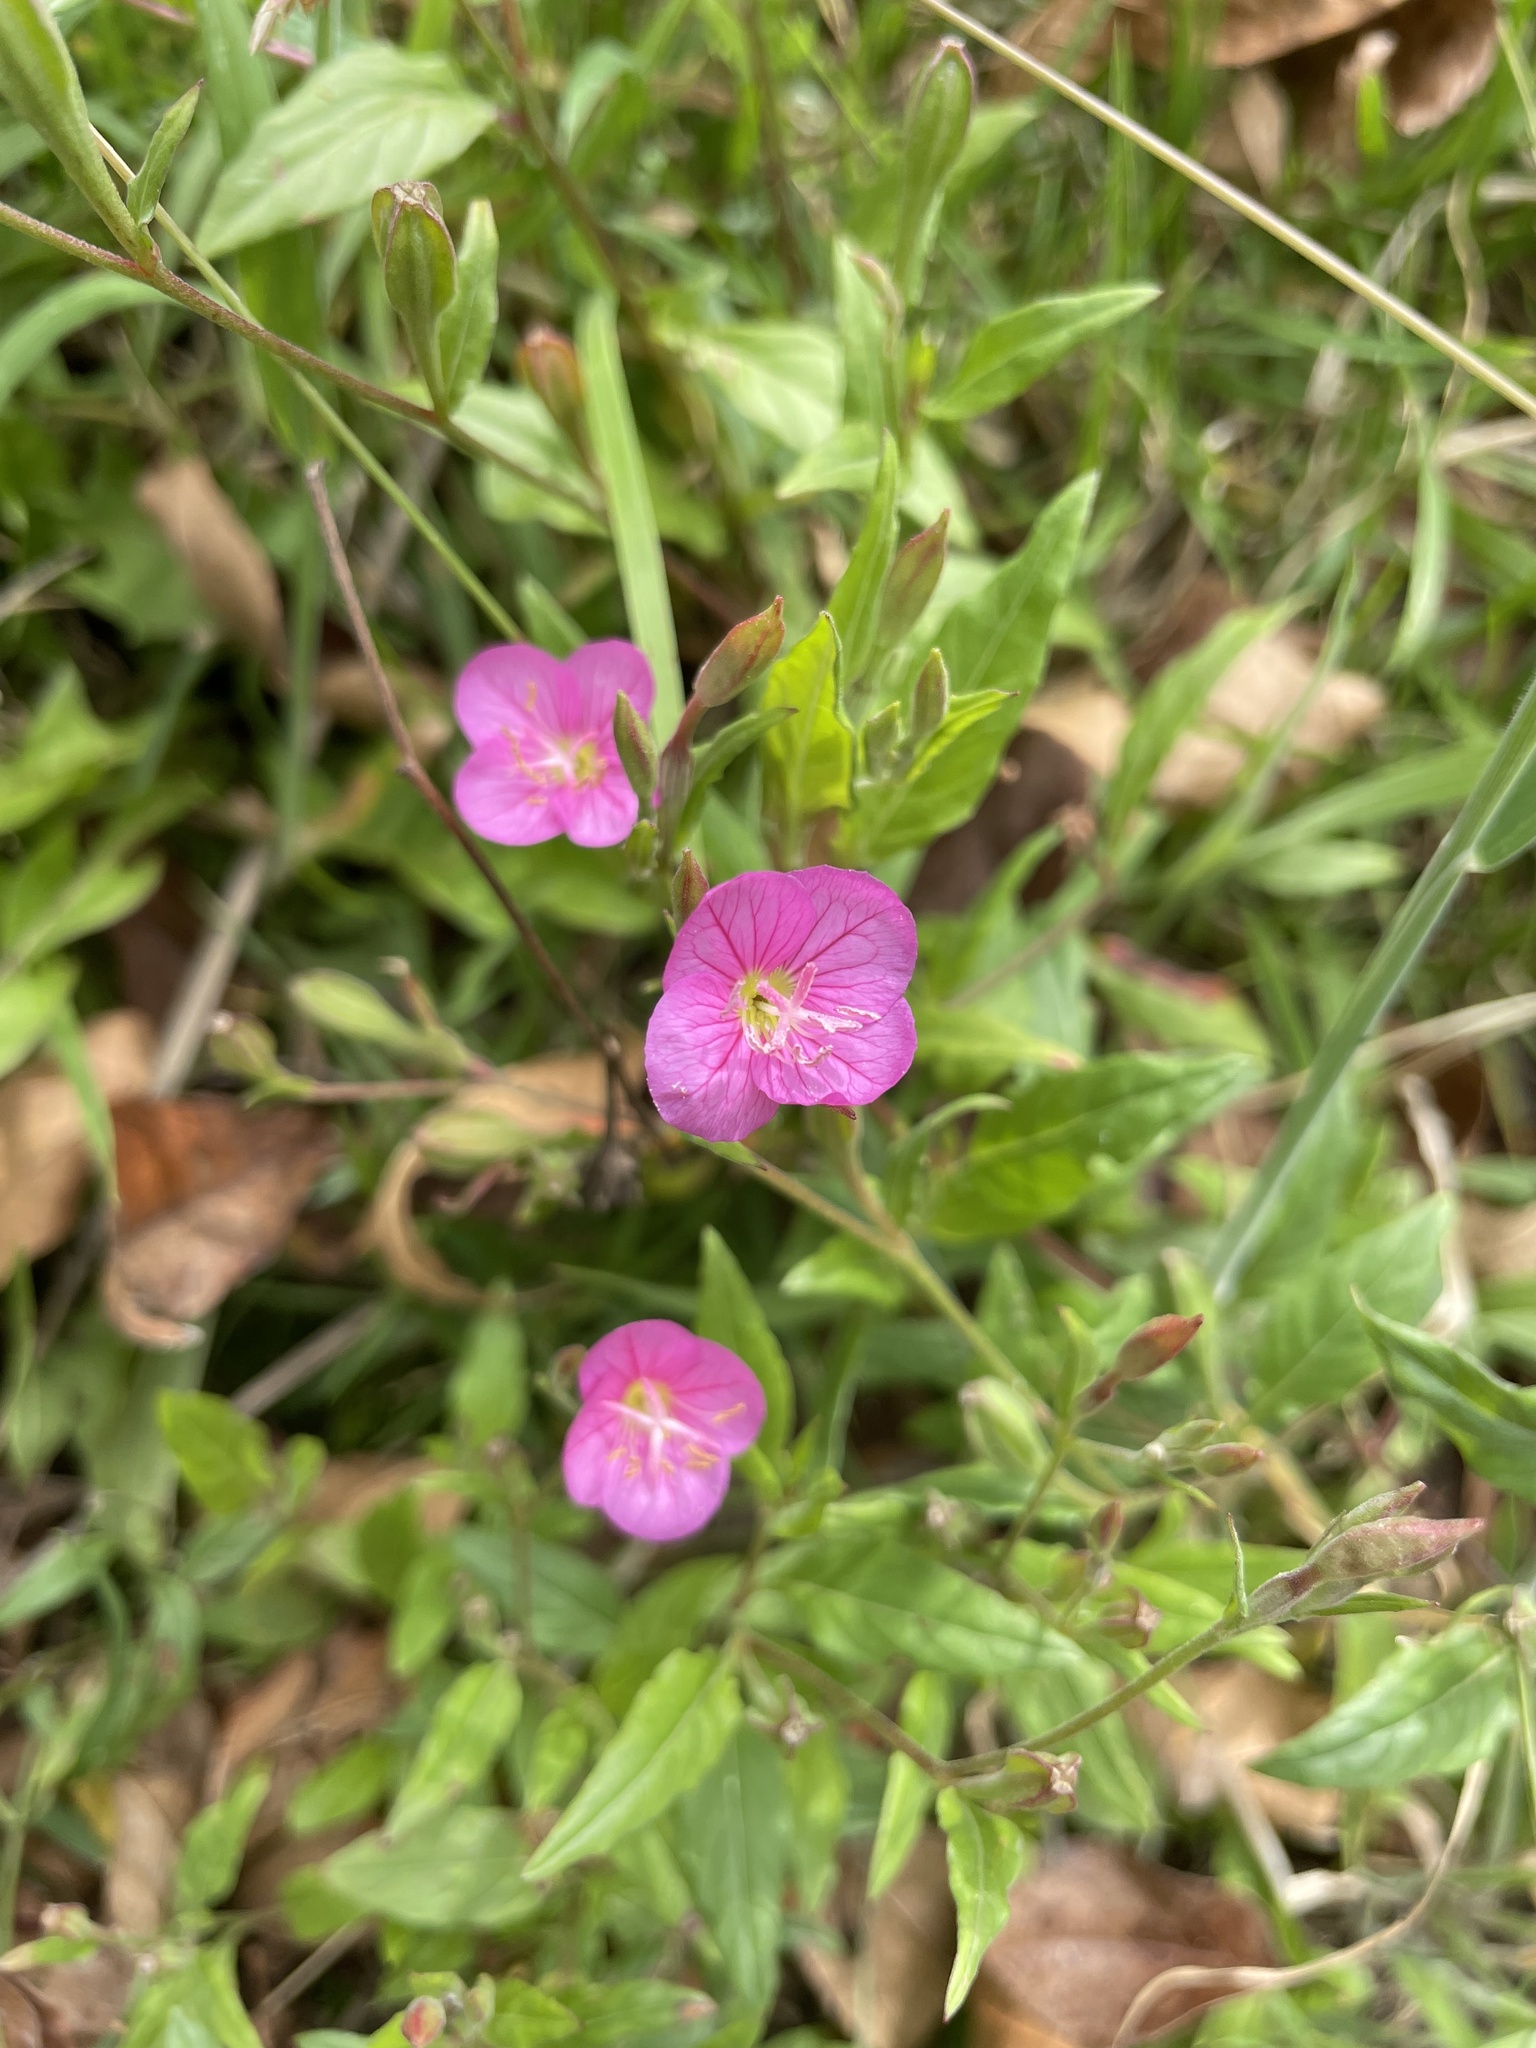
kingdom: Plantae
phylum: Tracheophyta
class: Magnoliopsida
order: Myrtales
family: Onagraceae
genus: Oenothera
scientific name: Oenothera rosea
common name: Rosy evening-primrose
